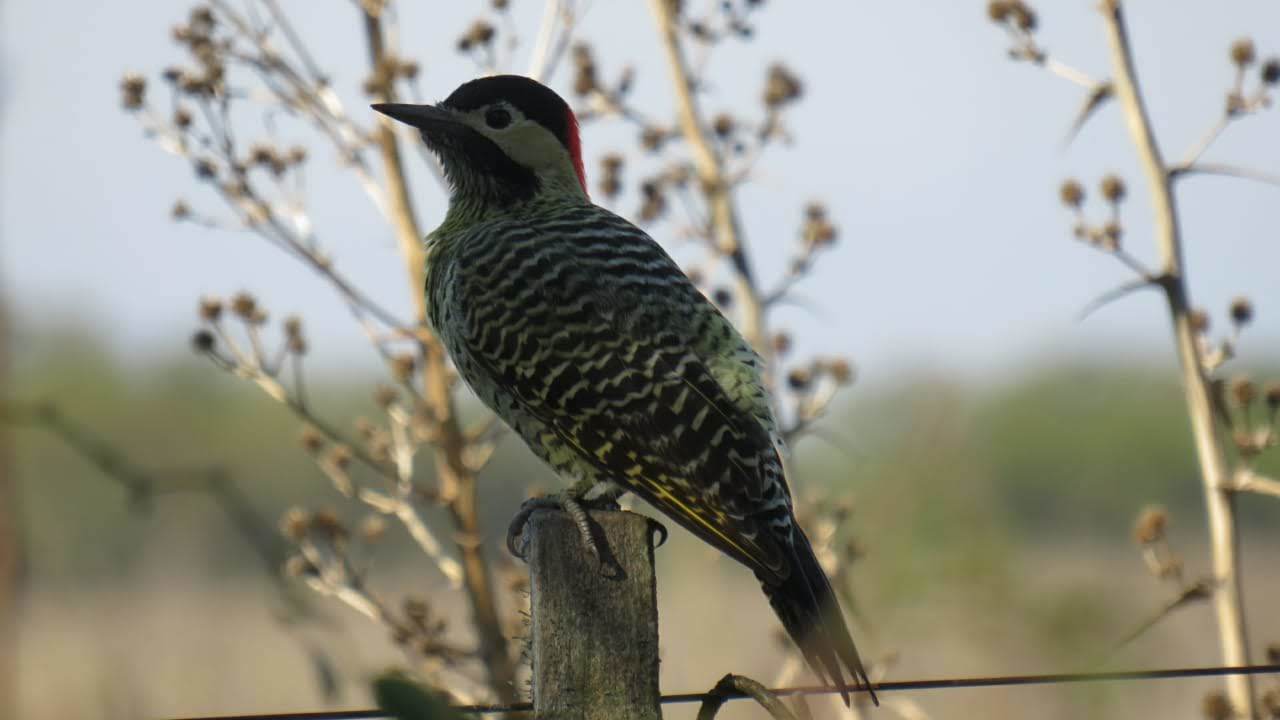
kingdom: Animalia
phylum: Chordata
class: Aves
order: Piciformes
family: Picidae
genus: Colaptes
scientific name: Colaptes melanochloros
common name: Green-barred woodpecker
